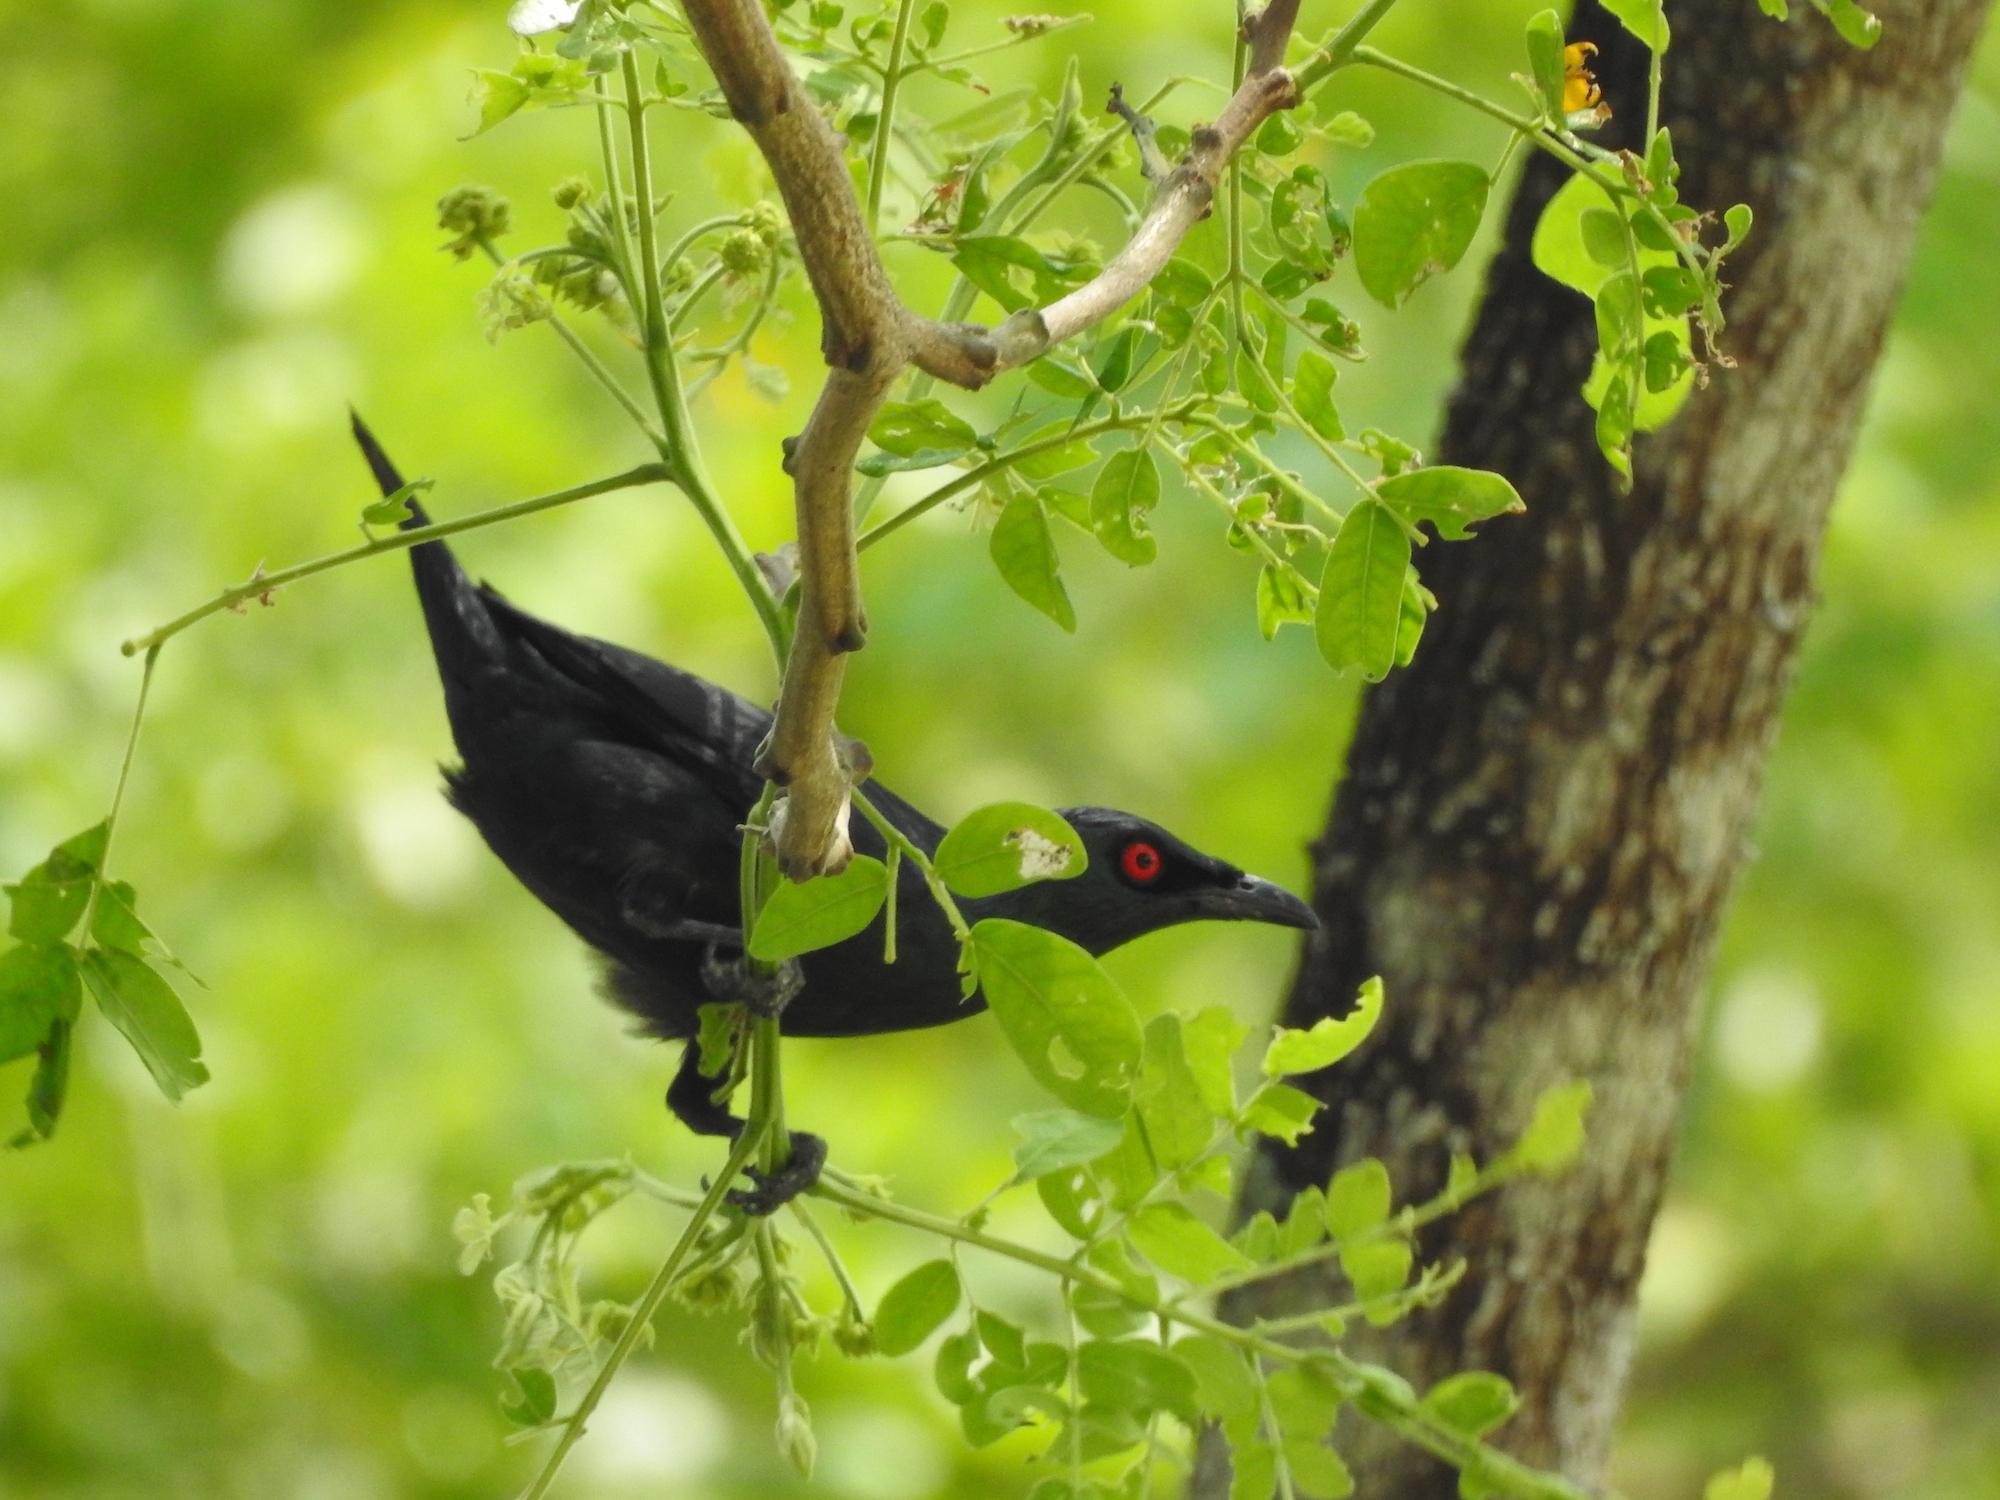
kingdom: Animalia
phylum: Chordata
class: Aves
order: Passeriformes
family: Sturnidae
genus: Aplonis
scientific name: Aplonis panayensis
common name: Asian glossy starling
